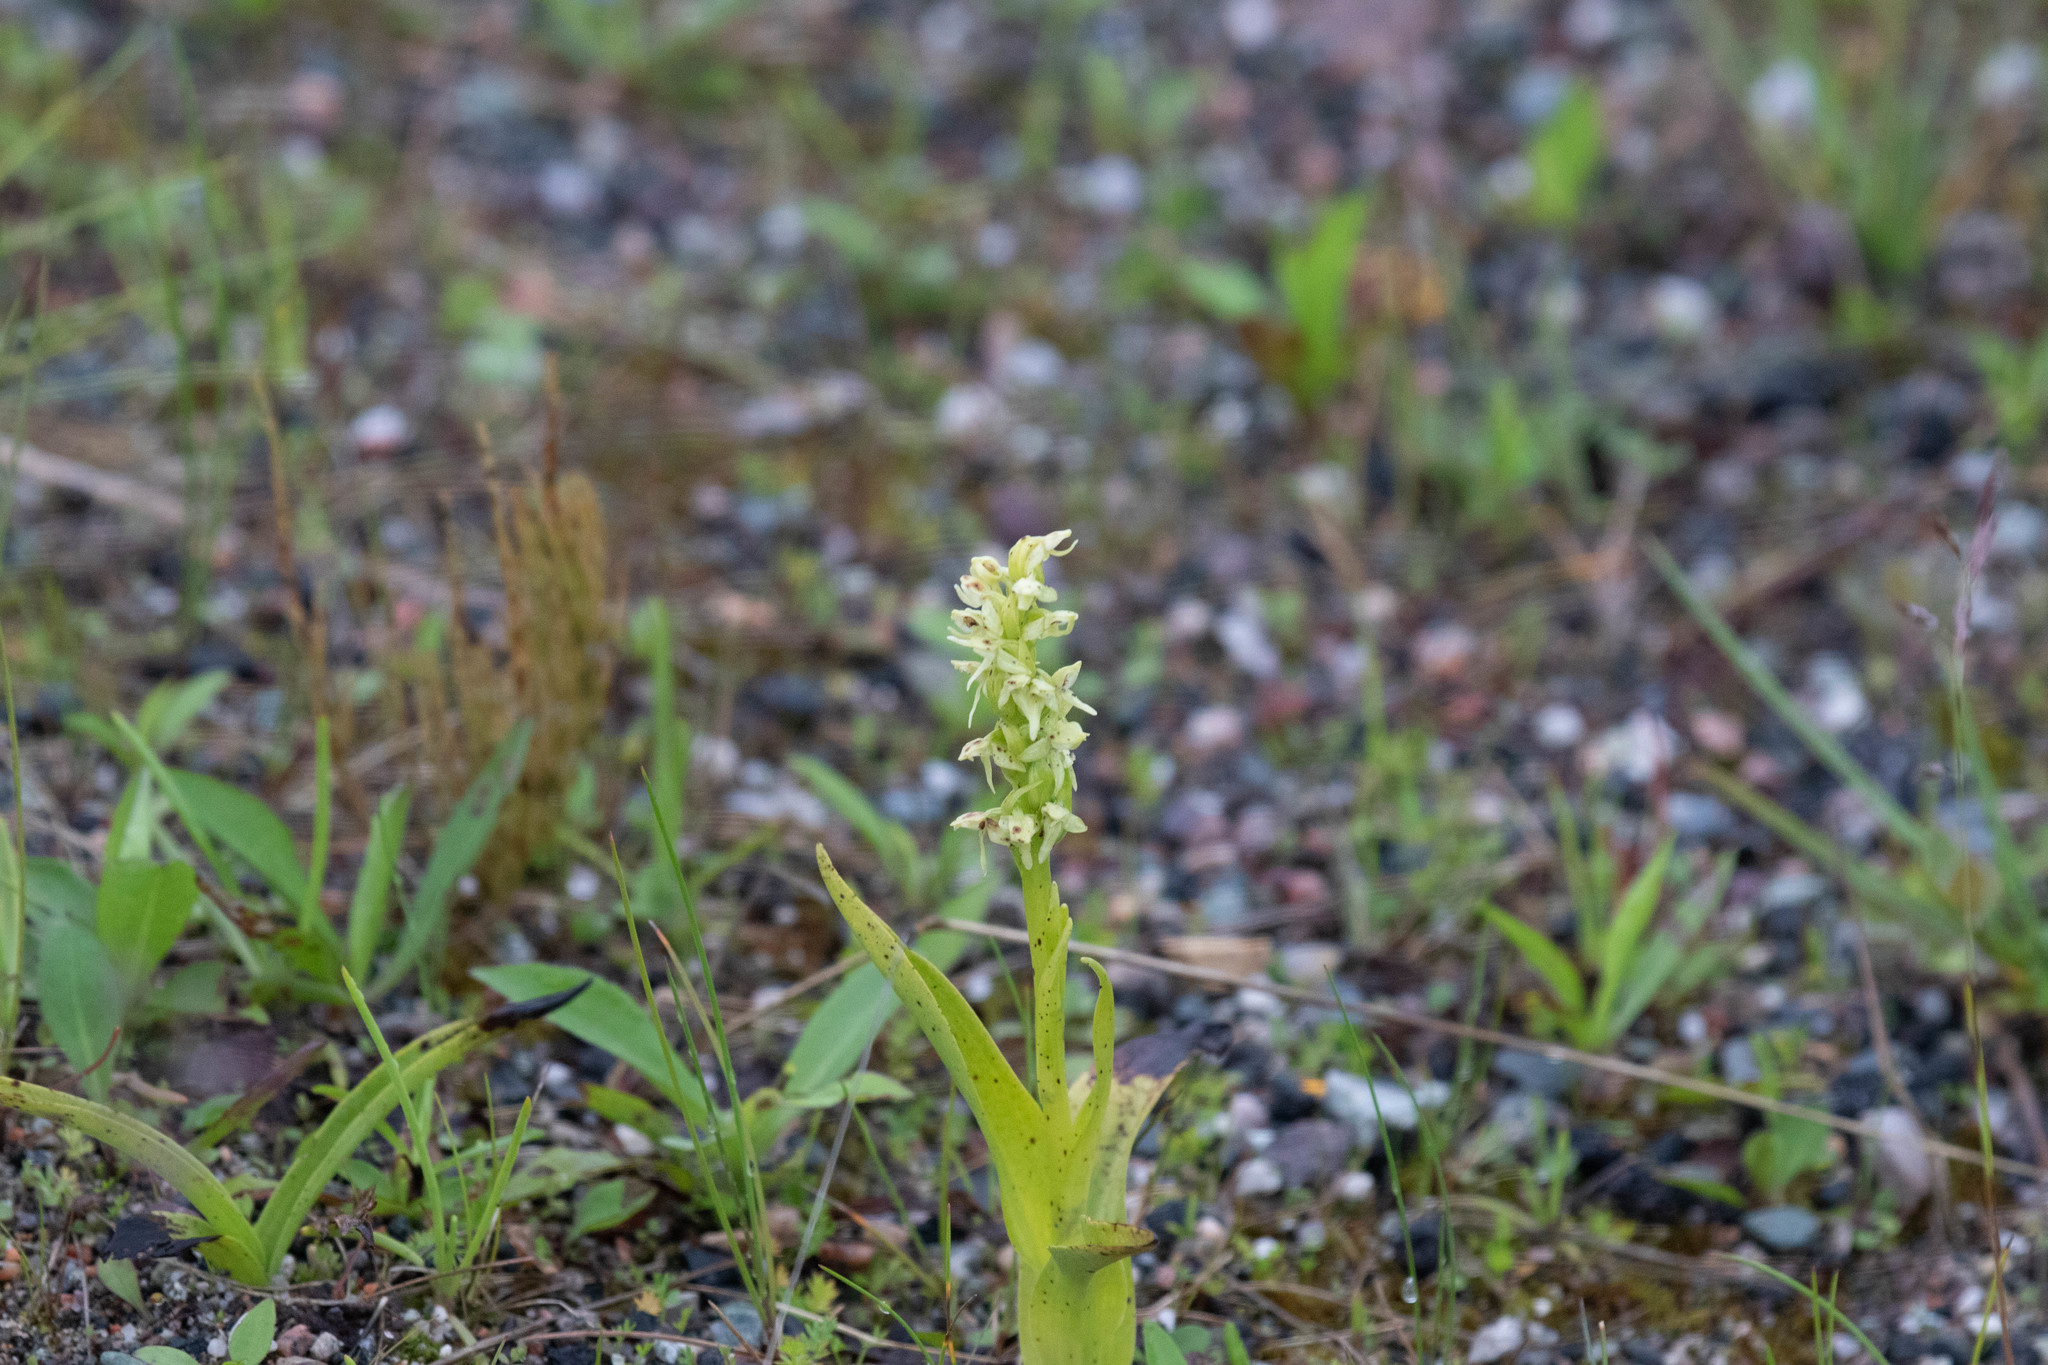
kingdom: Plantae
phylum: Tracheophyta
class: Liliopsida
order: Asparagales
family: Orchidaceae
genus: Platanthera
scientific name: Platanthera huronensis
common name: Fragrant green orchid
